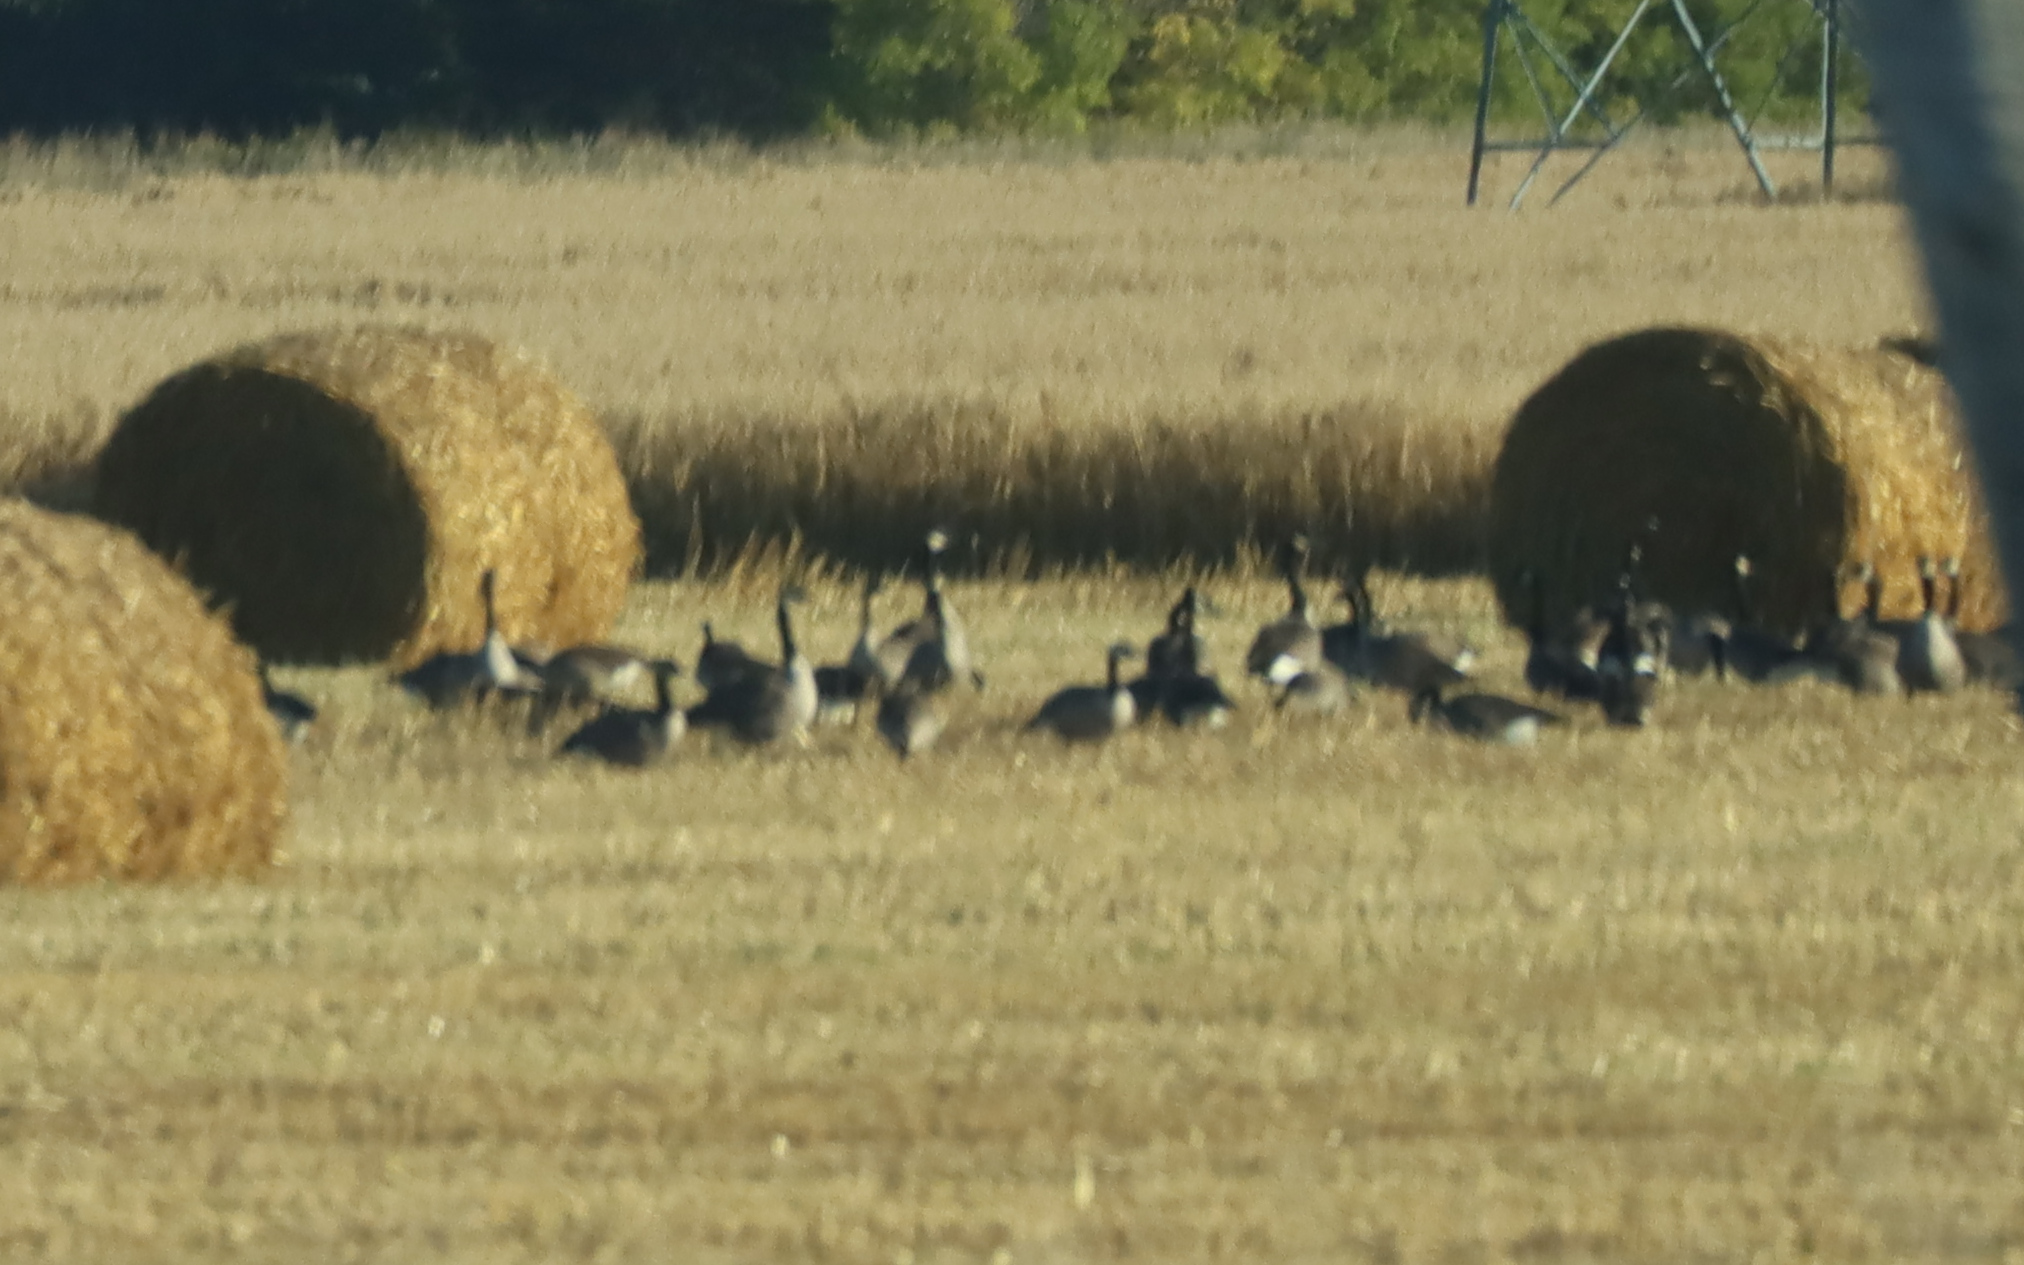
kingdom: Animalia
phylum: Chordata
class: Aves
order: Anseriformes
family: Anatidae
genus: Branta
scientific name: Branta canadensis
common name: Canada goose
